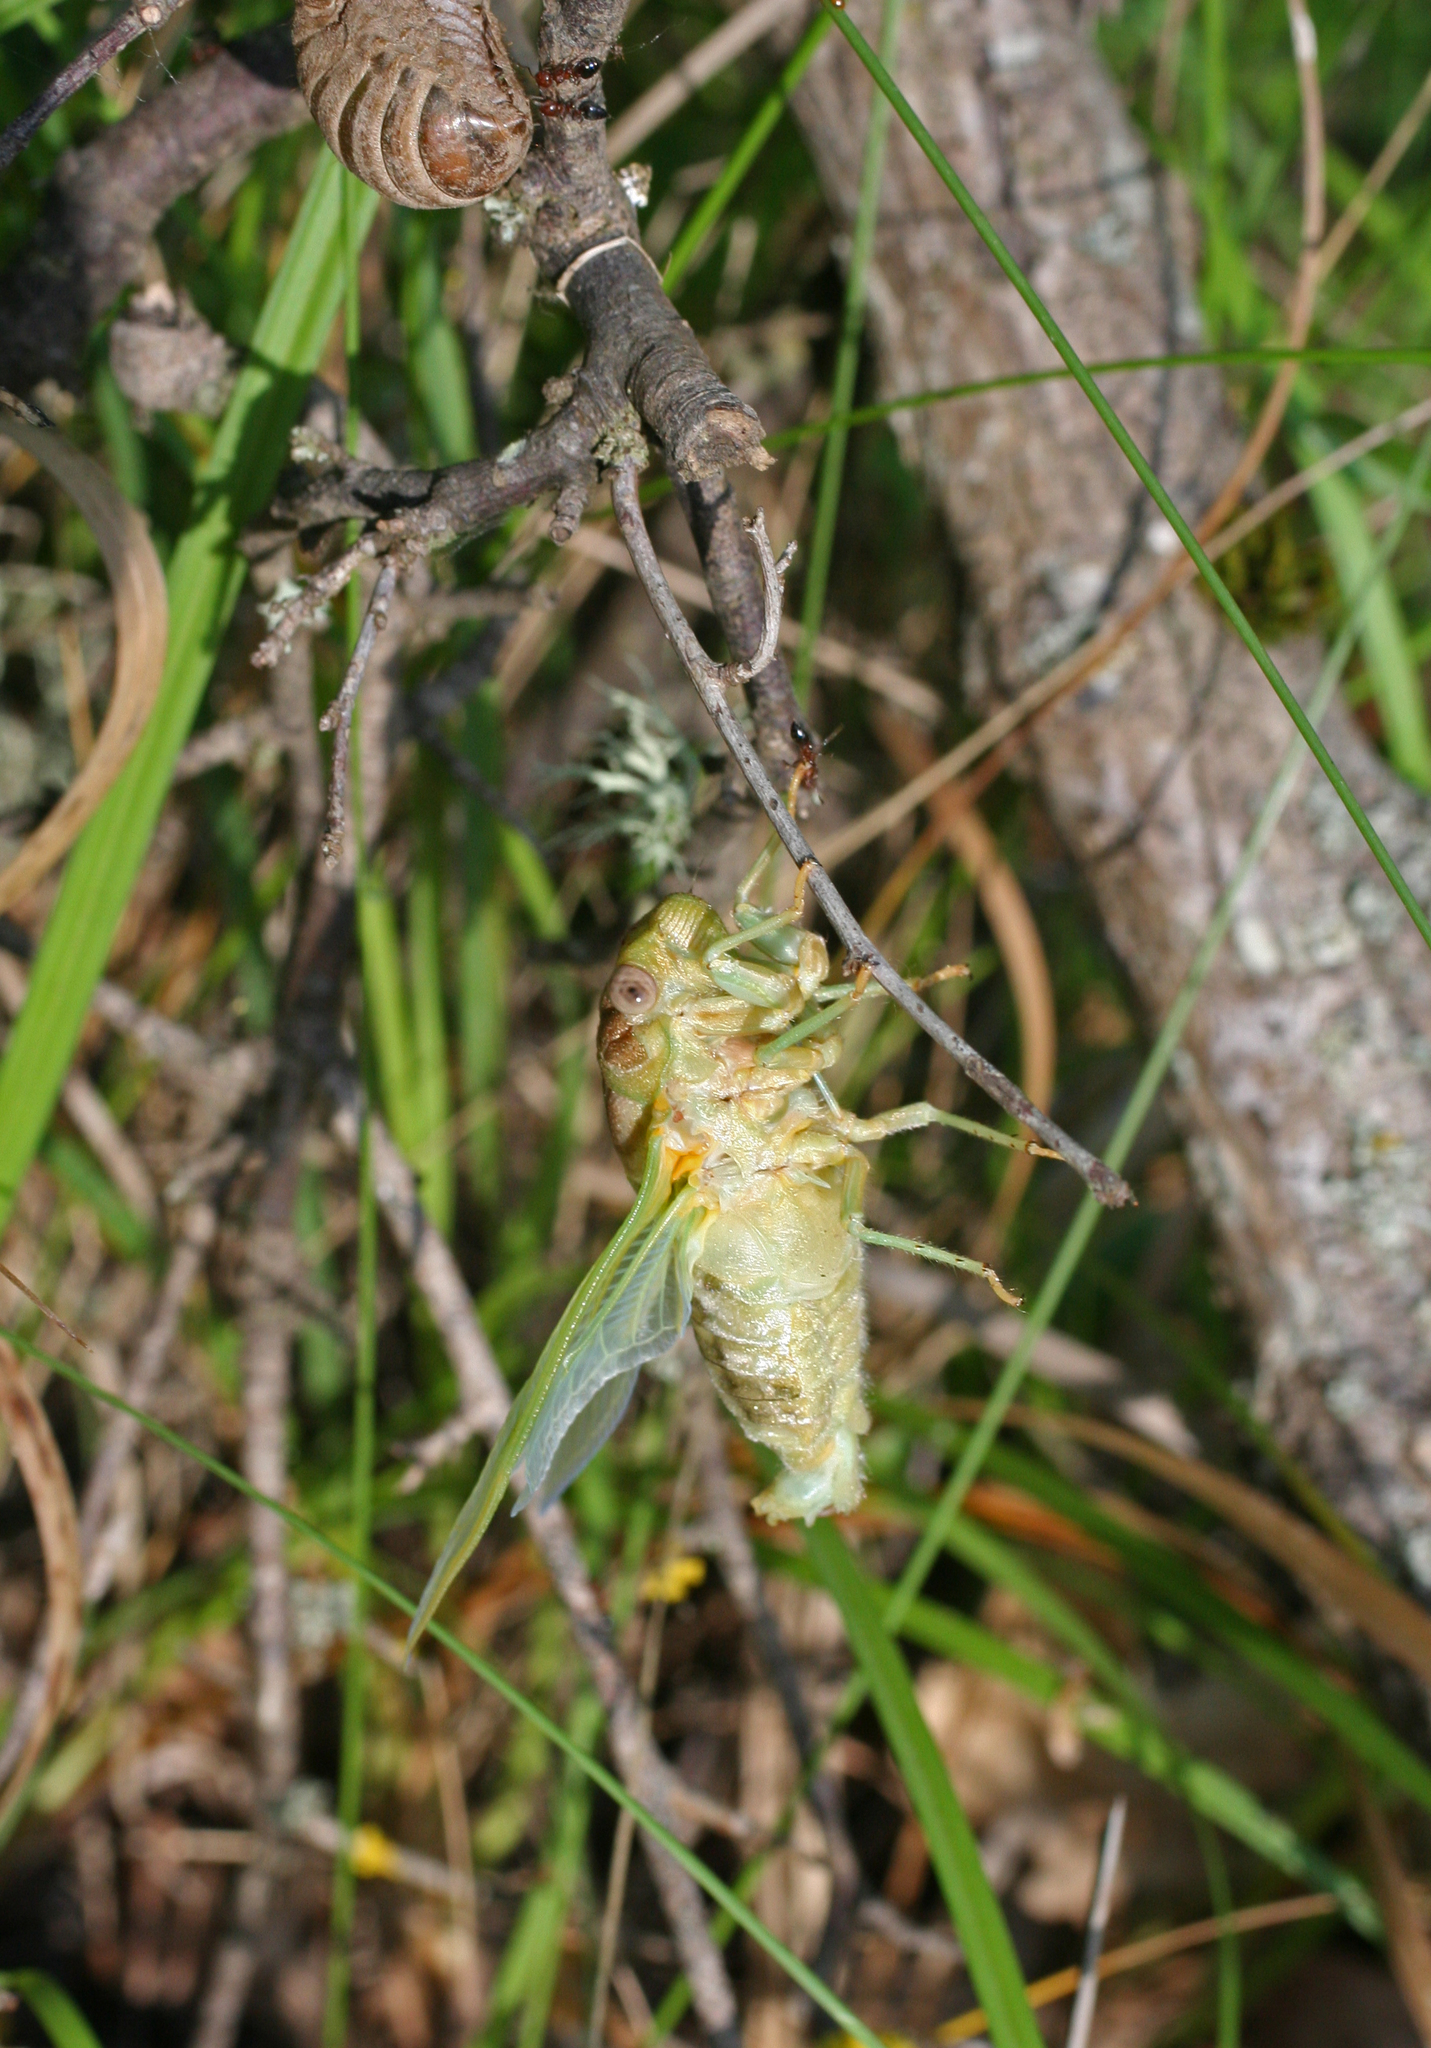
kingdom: Animalia
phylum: Arthropoda
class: Insecta
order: Hemiptera
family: Cicadidae
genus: Lyristes
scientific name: Lyristes plebejus
